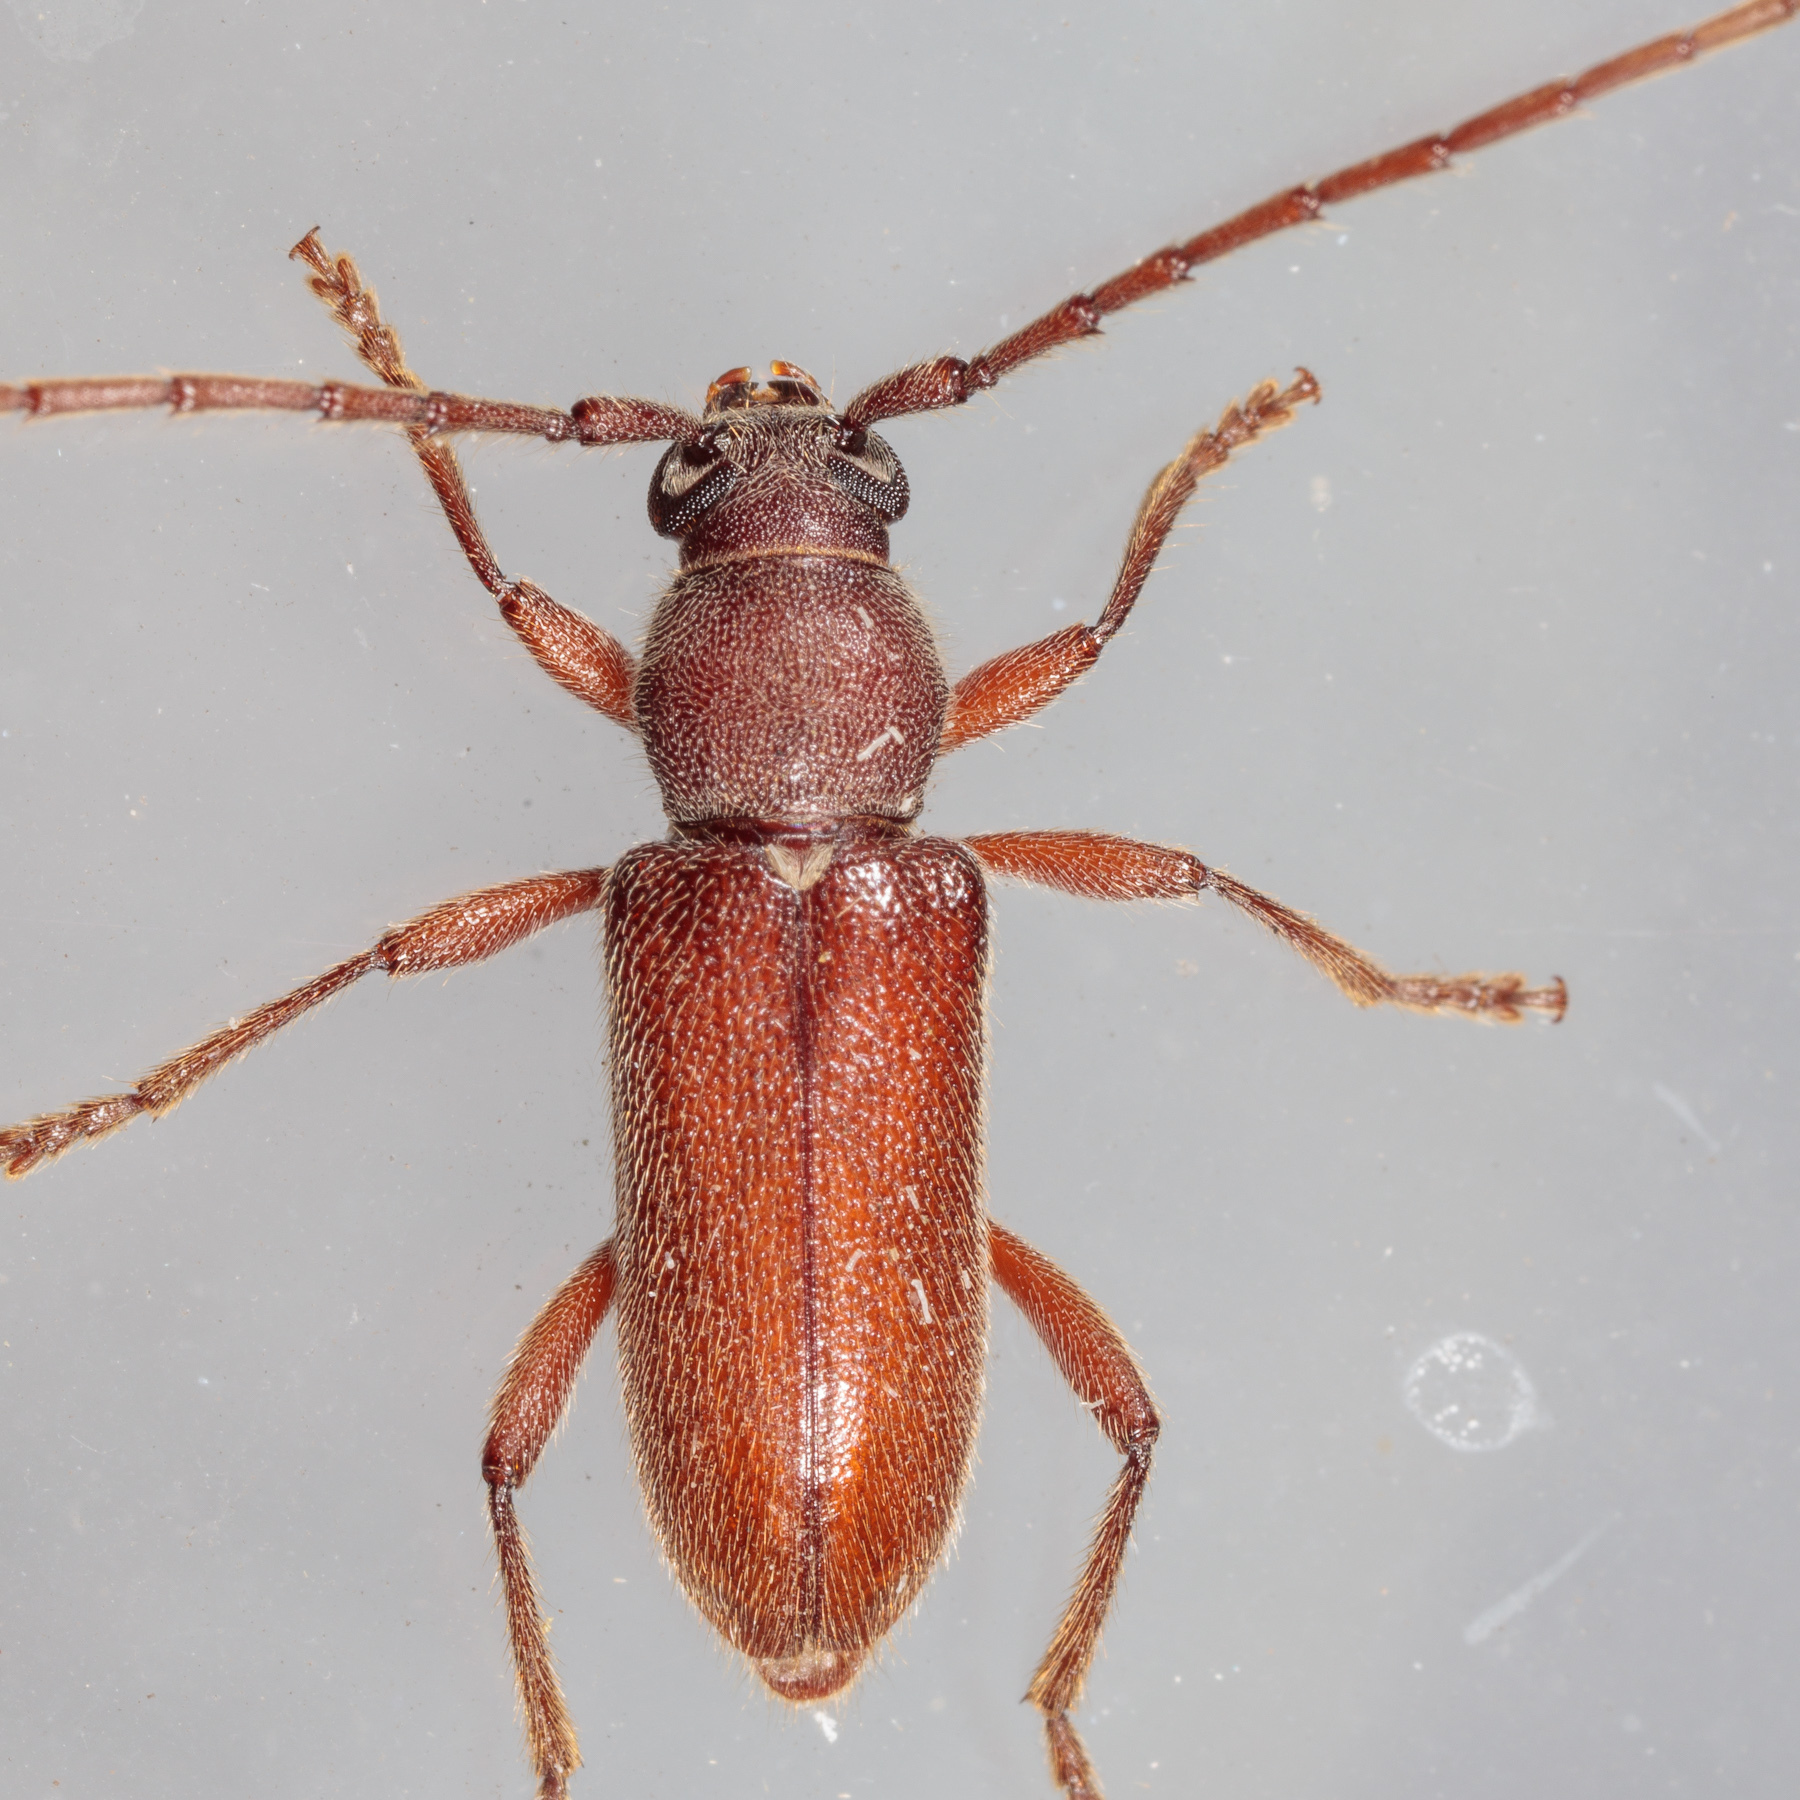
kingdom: Animalia
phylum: Arthropoda
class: Insecta
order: Coleoptera
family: Cerambycidae
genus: Anelaphus
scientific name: Anelaphus moestus
